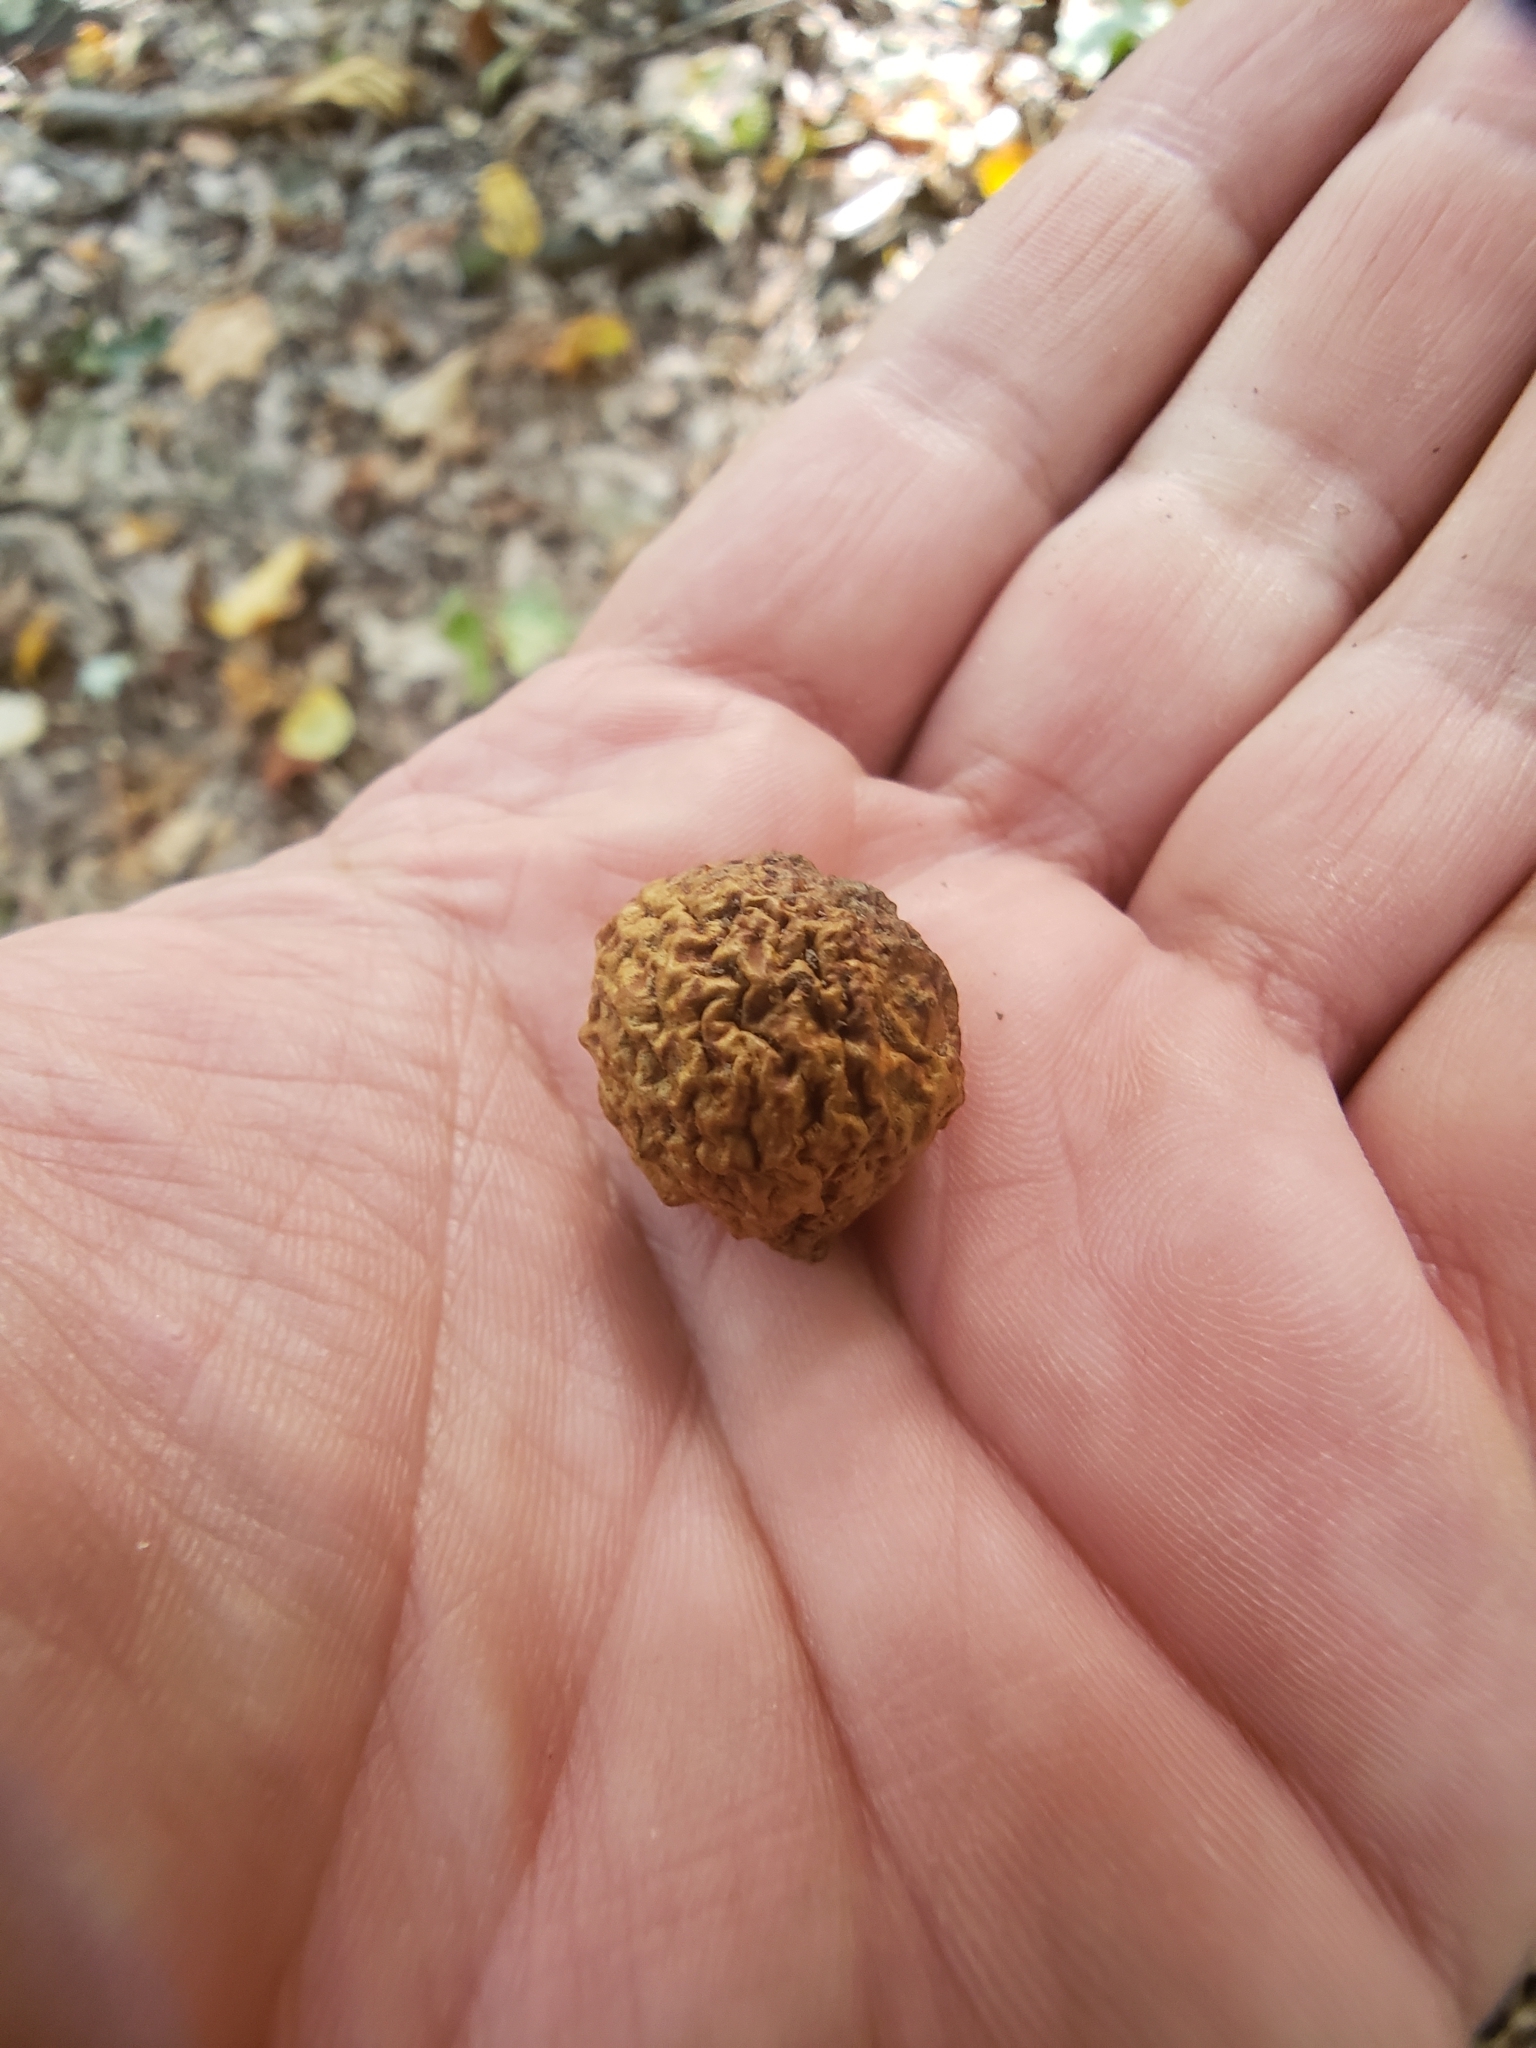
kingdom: Animalia
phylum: Arthropoda
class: Insecta
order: Hymenoptera
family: Cynipidae
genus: Amphibolips
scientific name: Amphibolips
